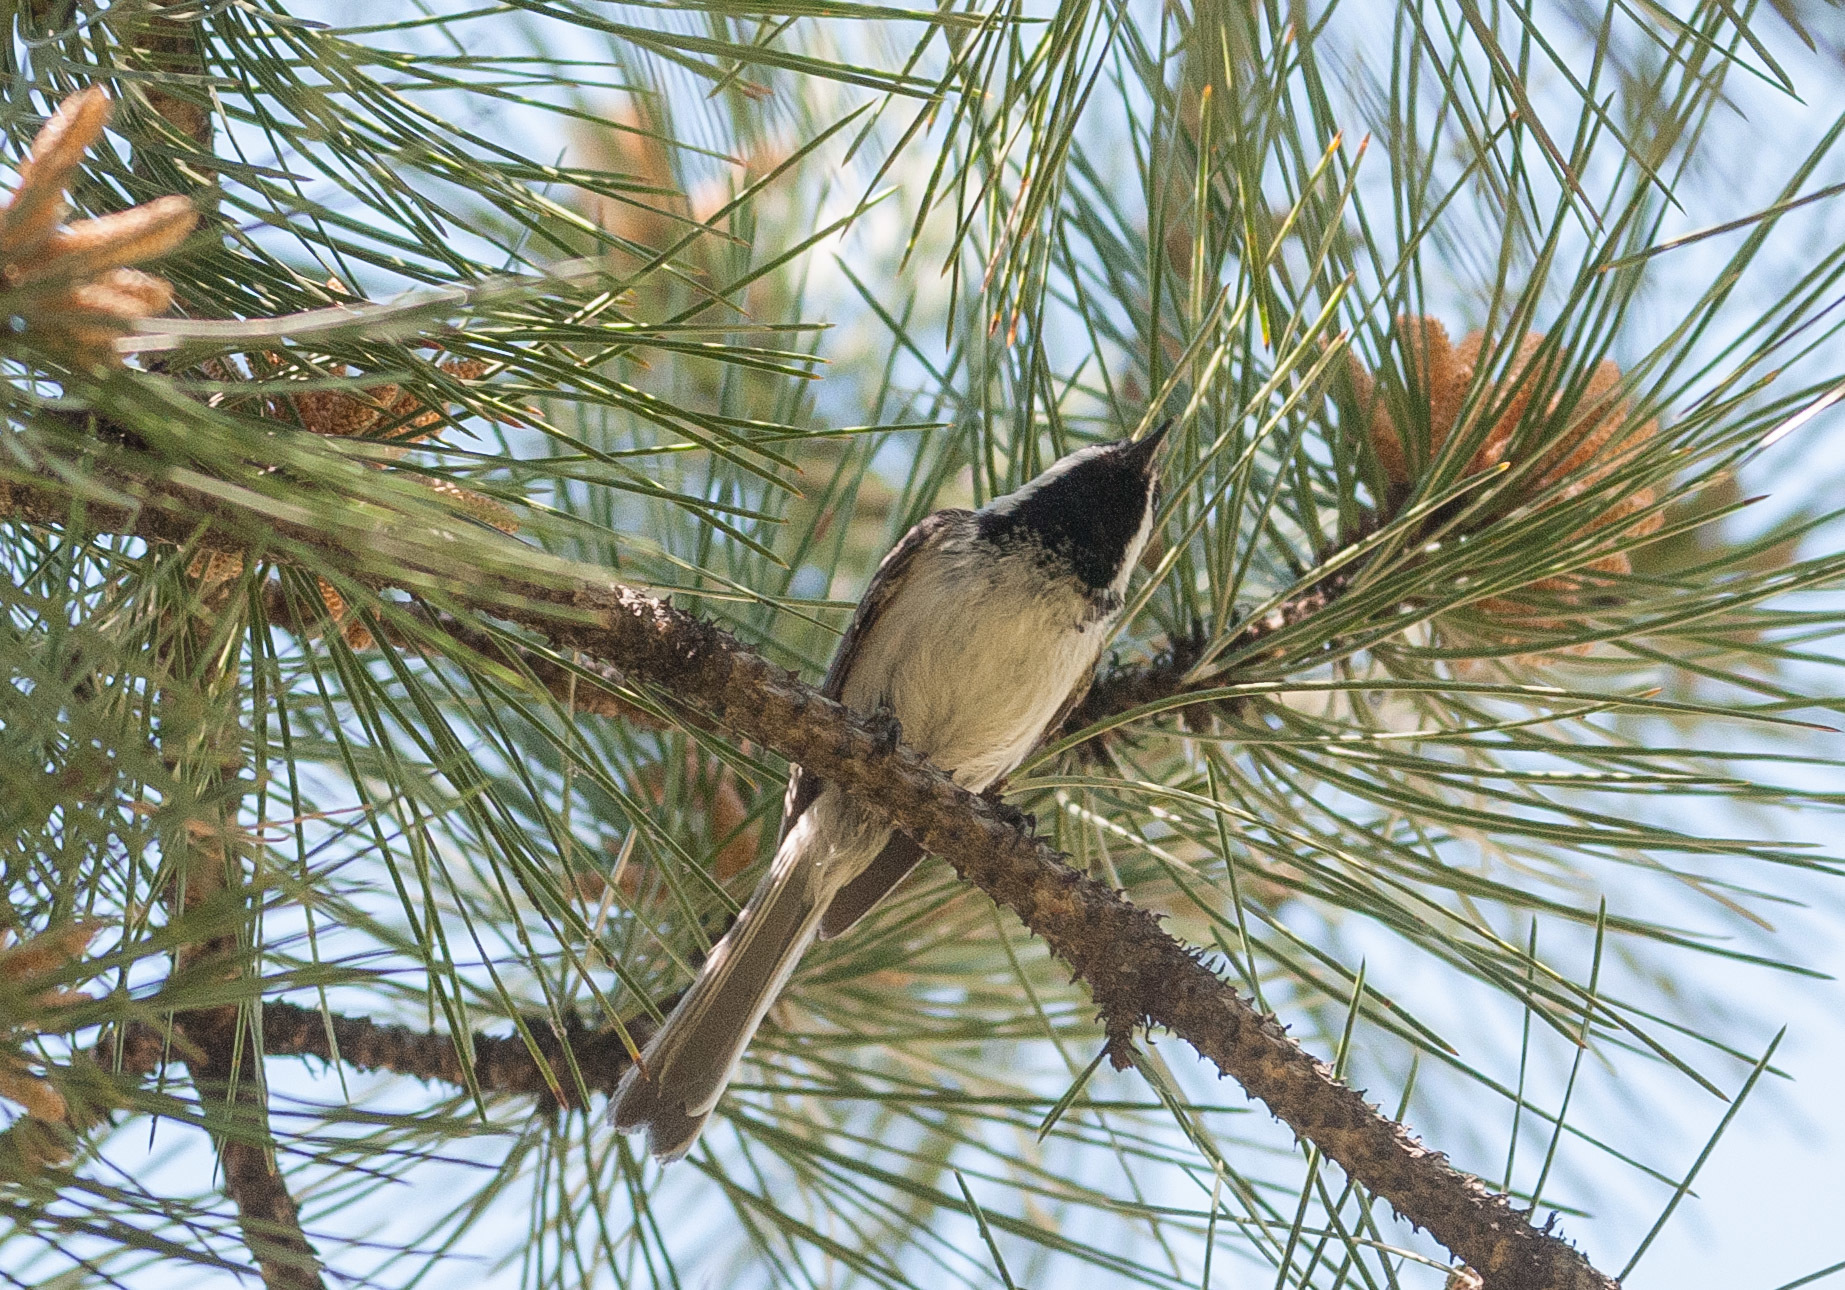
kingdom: Animalia
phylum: Chordata
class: Aves
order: Passeriformes
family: Paridae
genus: Poecile
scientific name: Poecile atricapillus
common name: Black-capped chickadee
